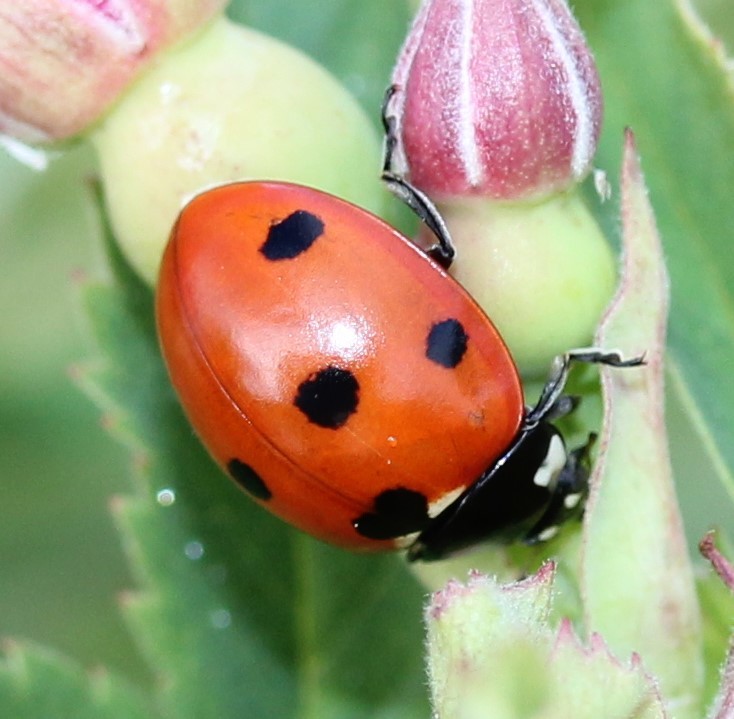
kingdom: Animalia
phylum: Arthropoda
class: Insecta
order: Coleoptera
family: Coccinellidae
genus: Coccinella
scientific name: Coccinella septempunctata
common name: Sevenspotted lady beetle
